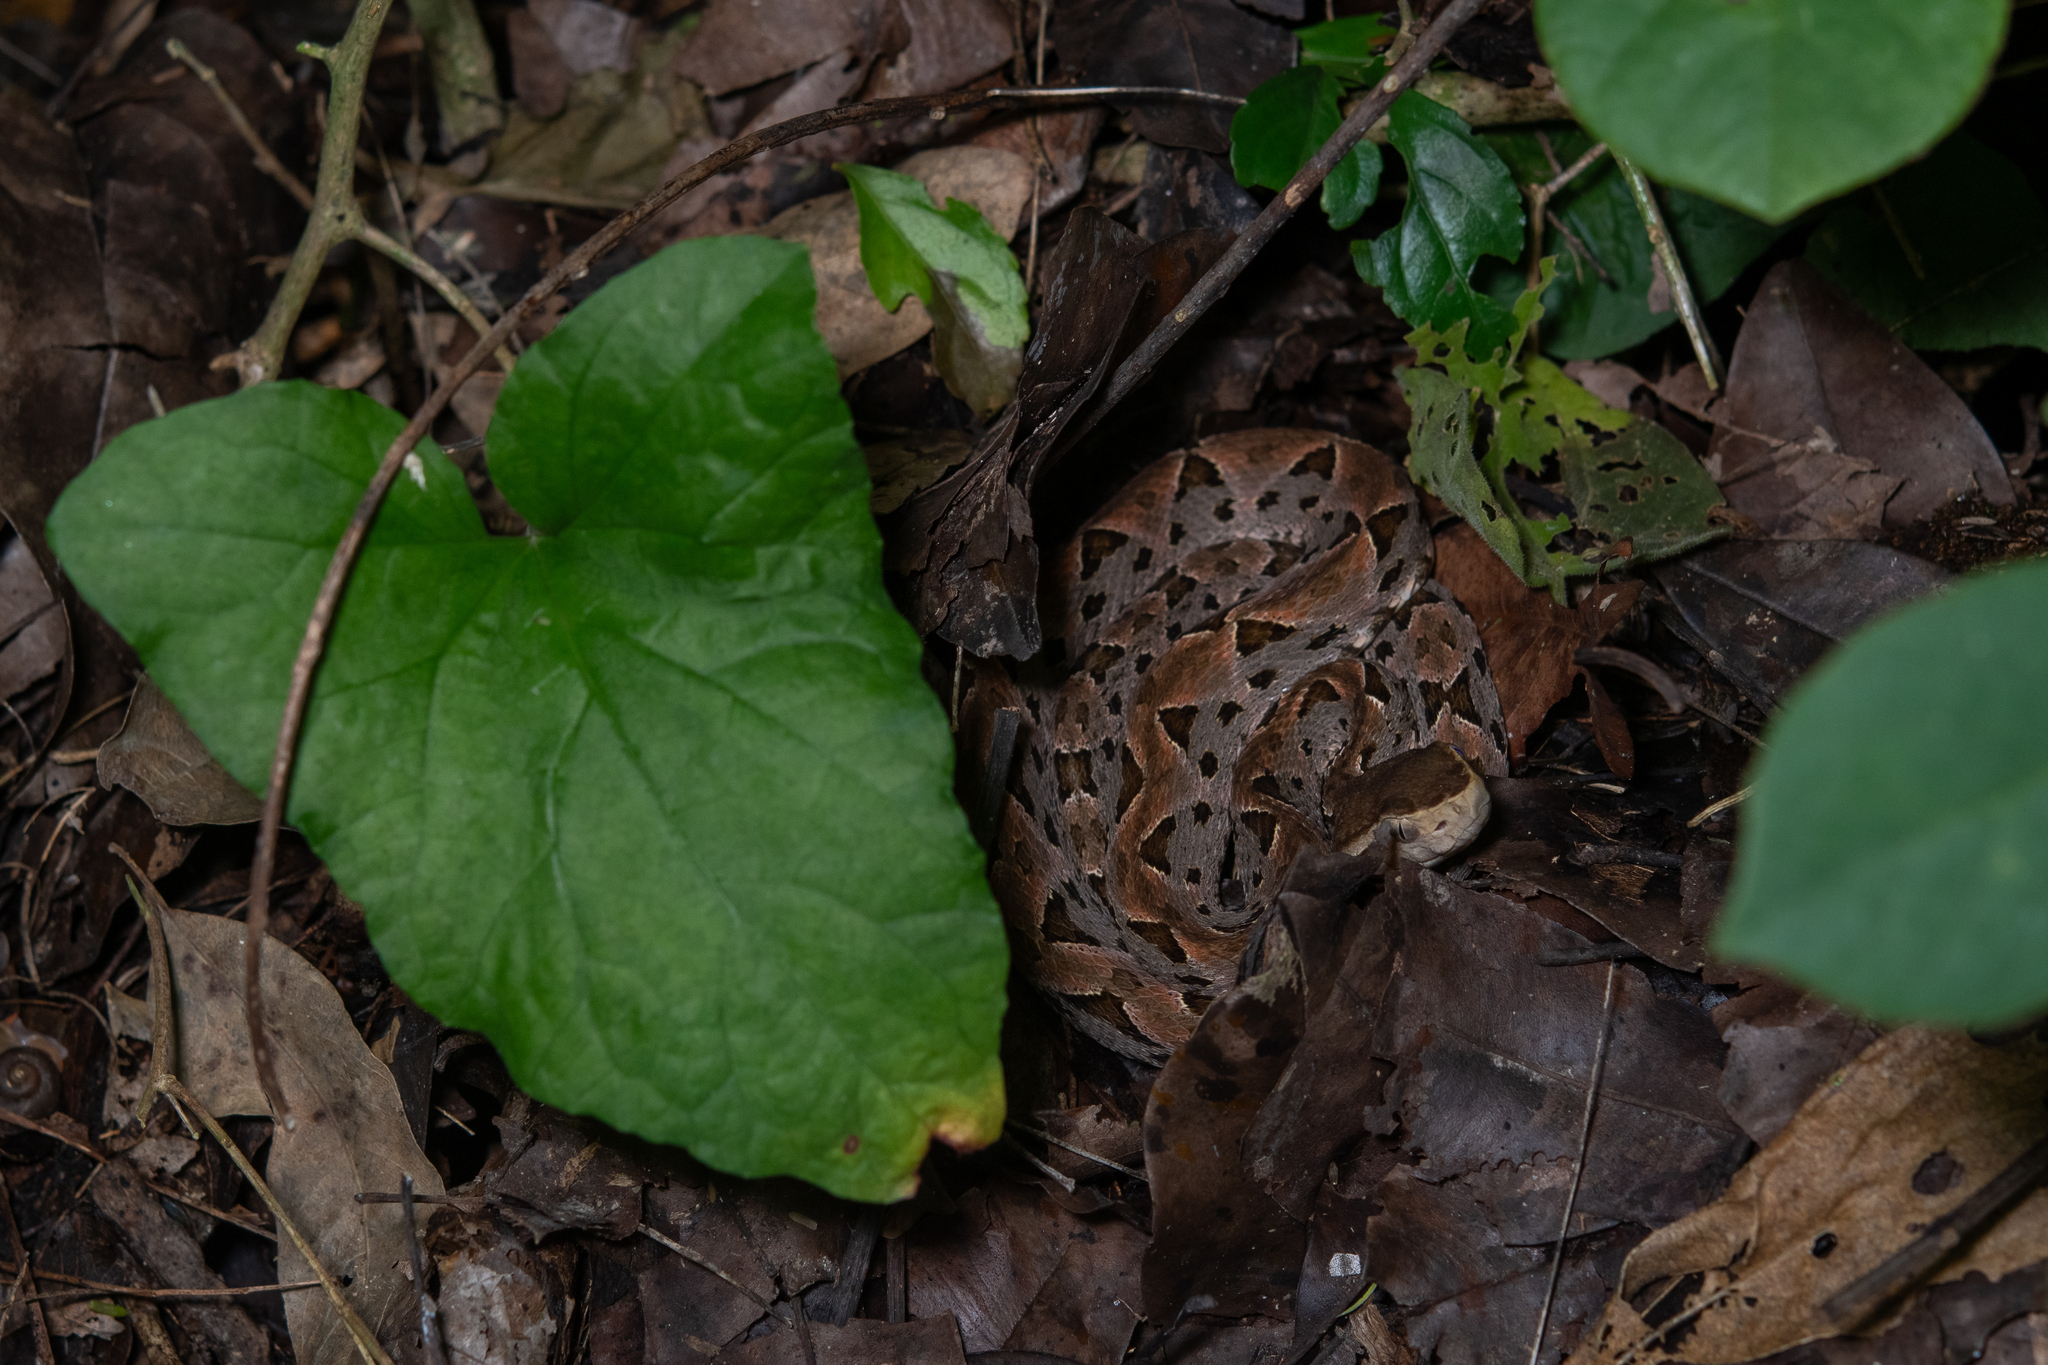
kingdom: Animalia
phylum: Chordata
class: Squamata
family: Viperidae
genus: Bothrops
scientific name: Bothrops asper
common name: Terciopelo
